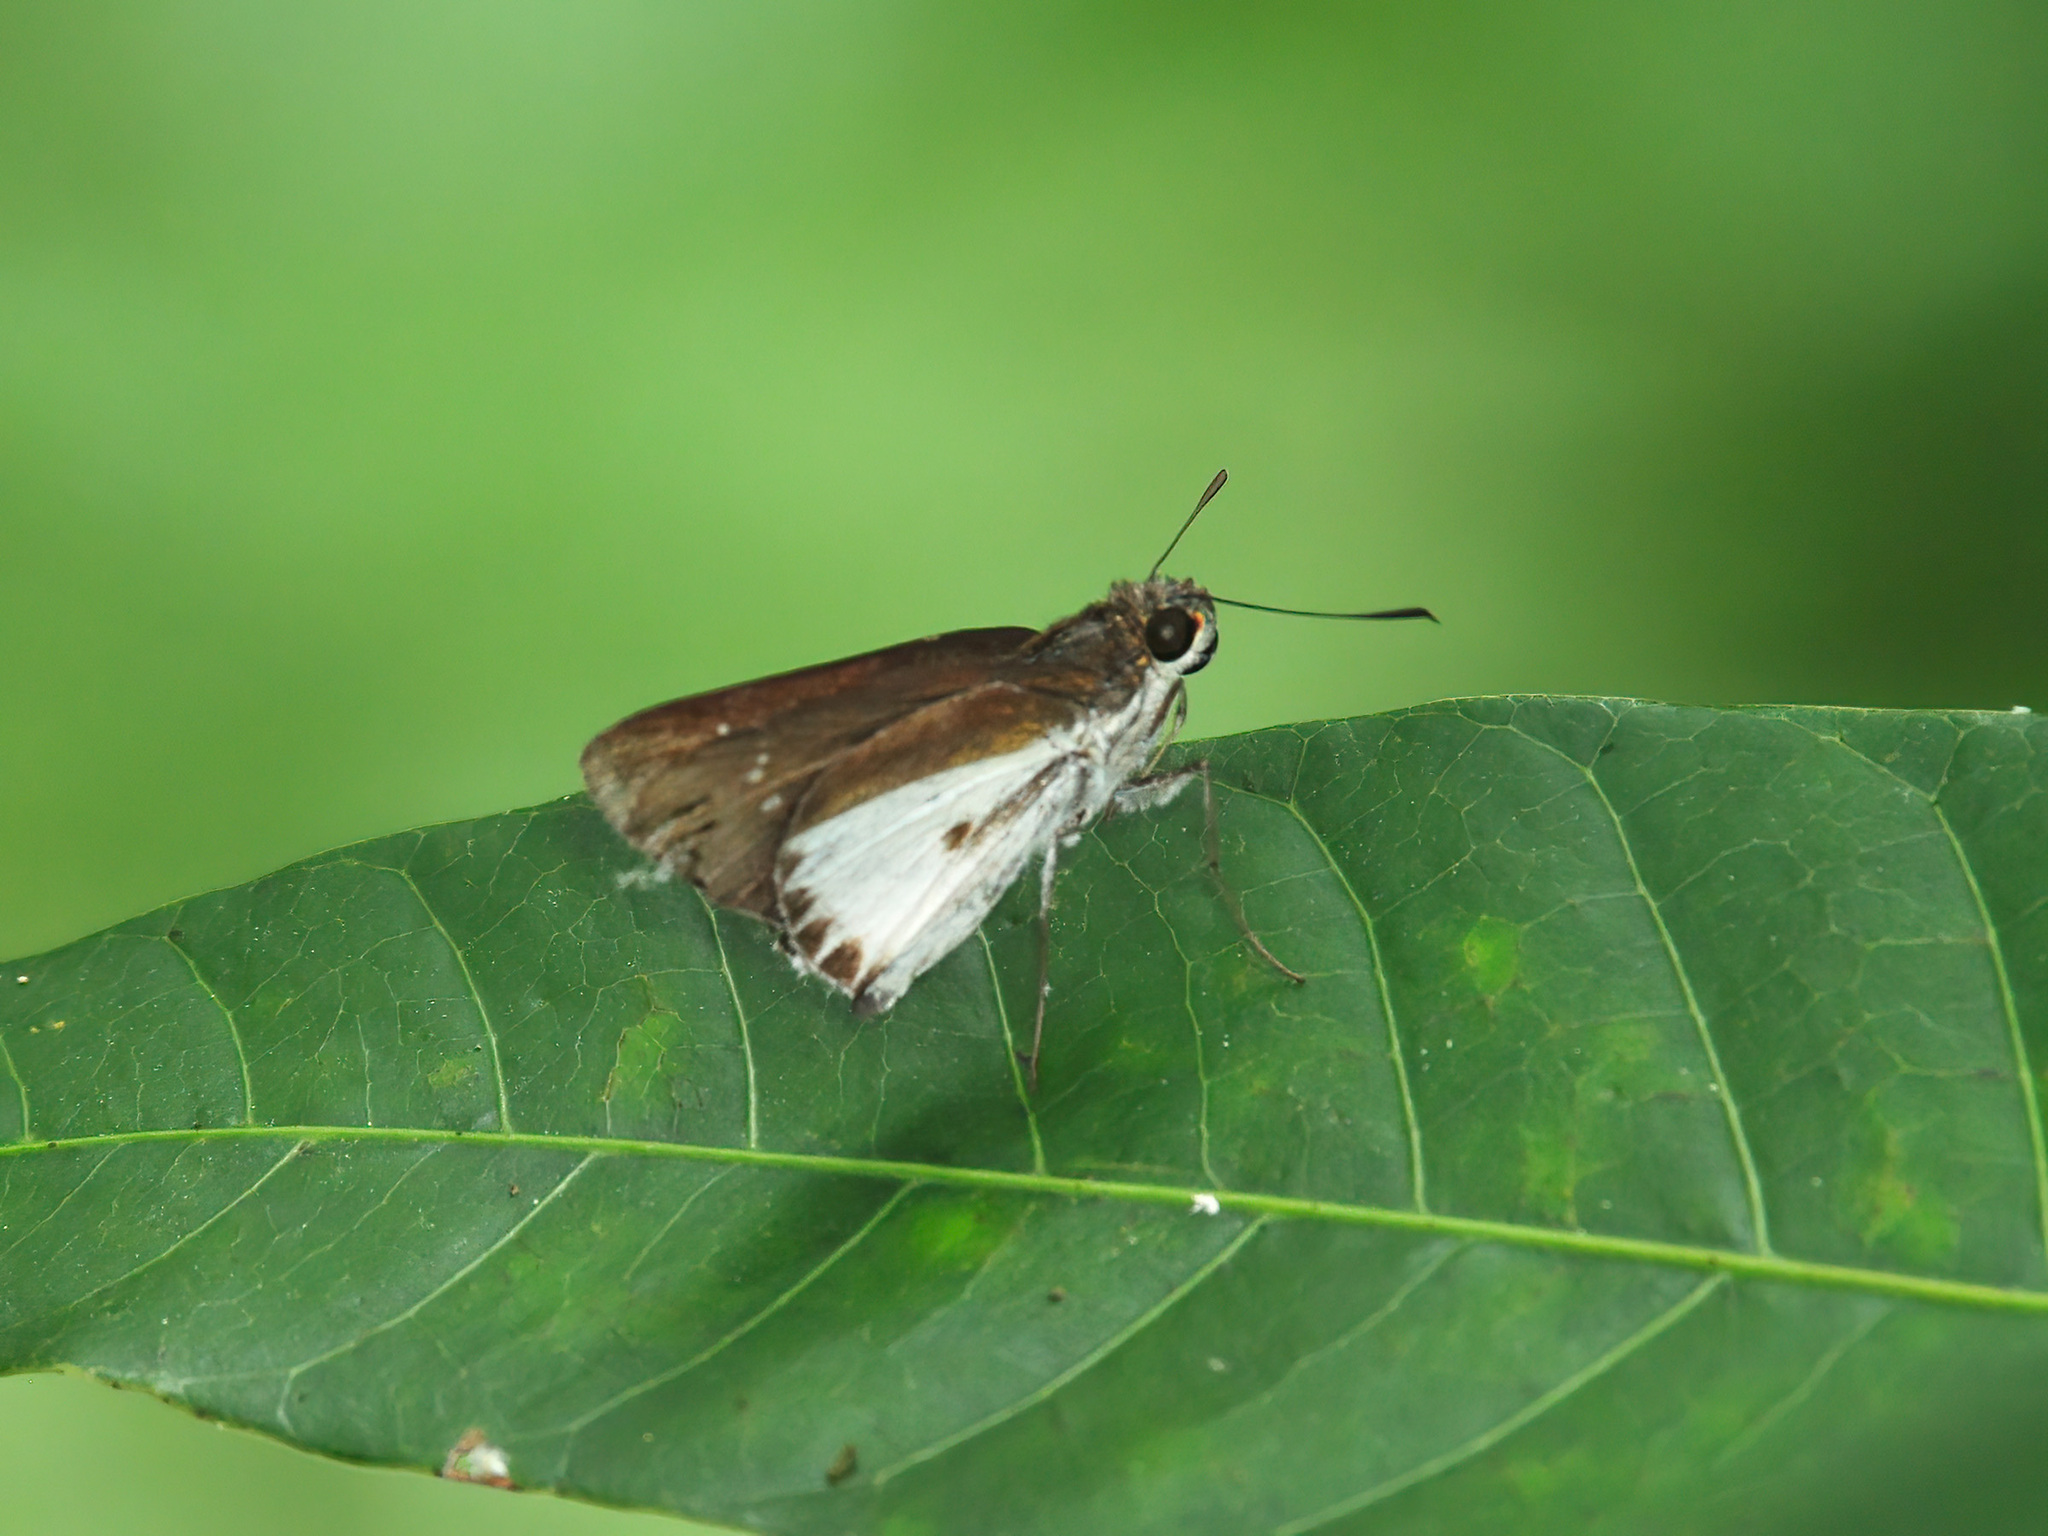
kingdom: Animalia
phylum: Arthropoda
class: Insecta
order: Lepidoptera
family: Hesperiidae
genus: Iton
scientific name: Iton semamora
